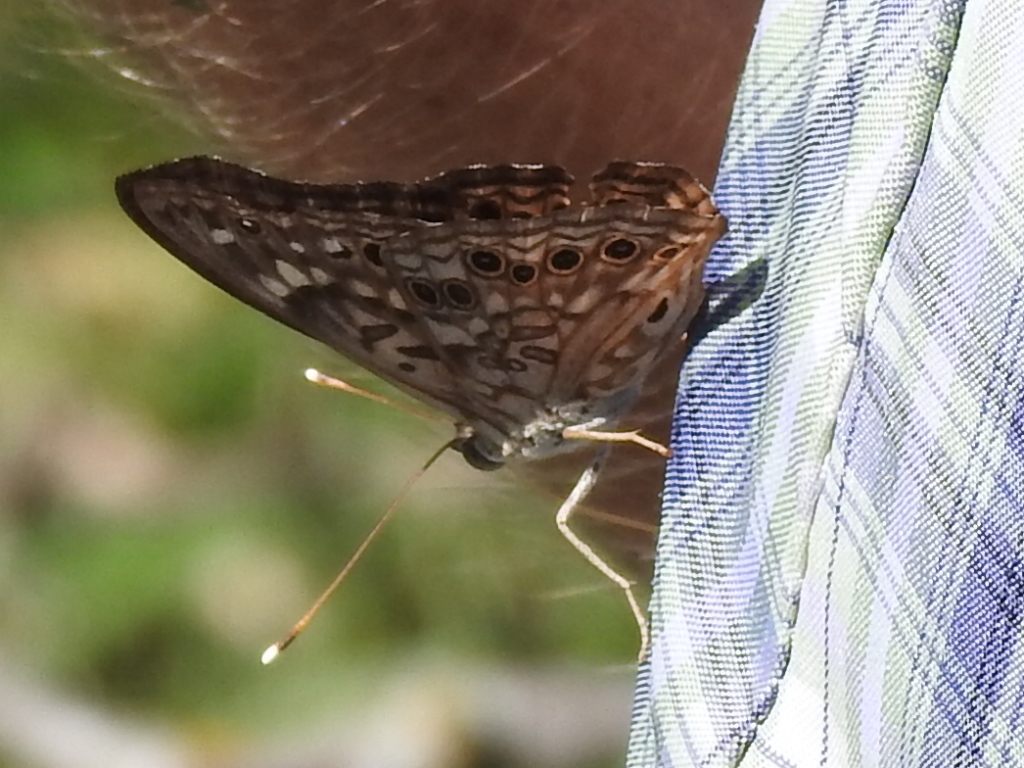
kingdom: Animalia
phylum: Arthropoda
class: Insecta
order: Lepidoptera
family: Nymphalidae
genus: Asterocampa
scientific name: Asterocampa celtis
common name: Hackberry emperor
